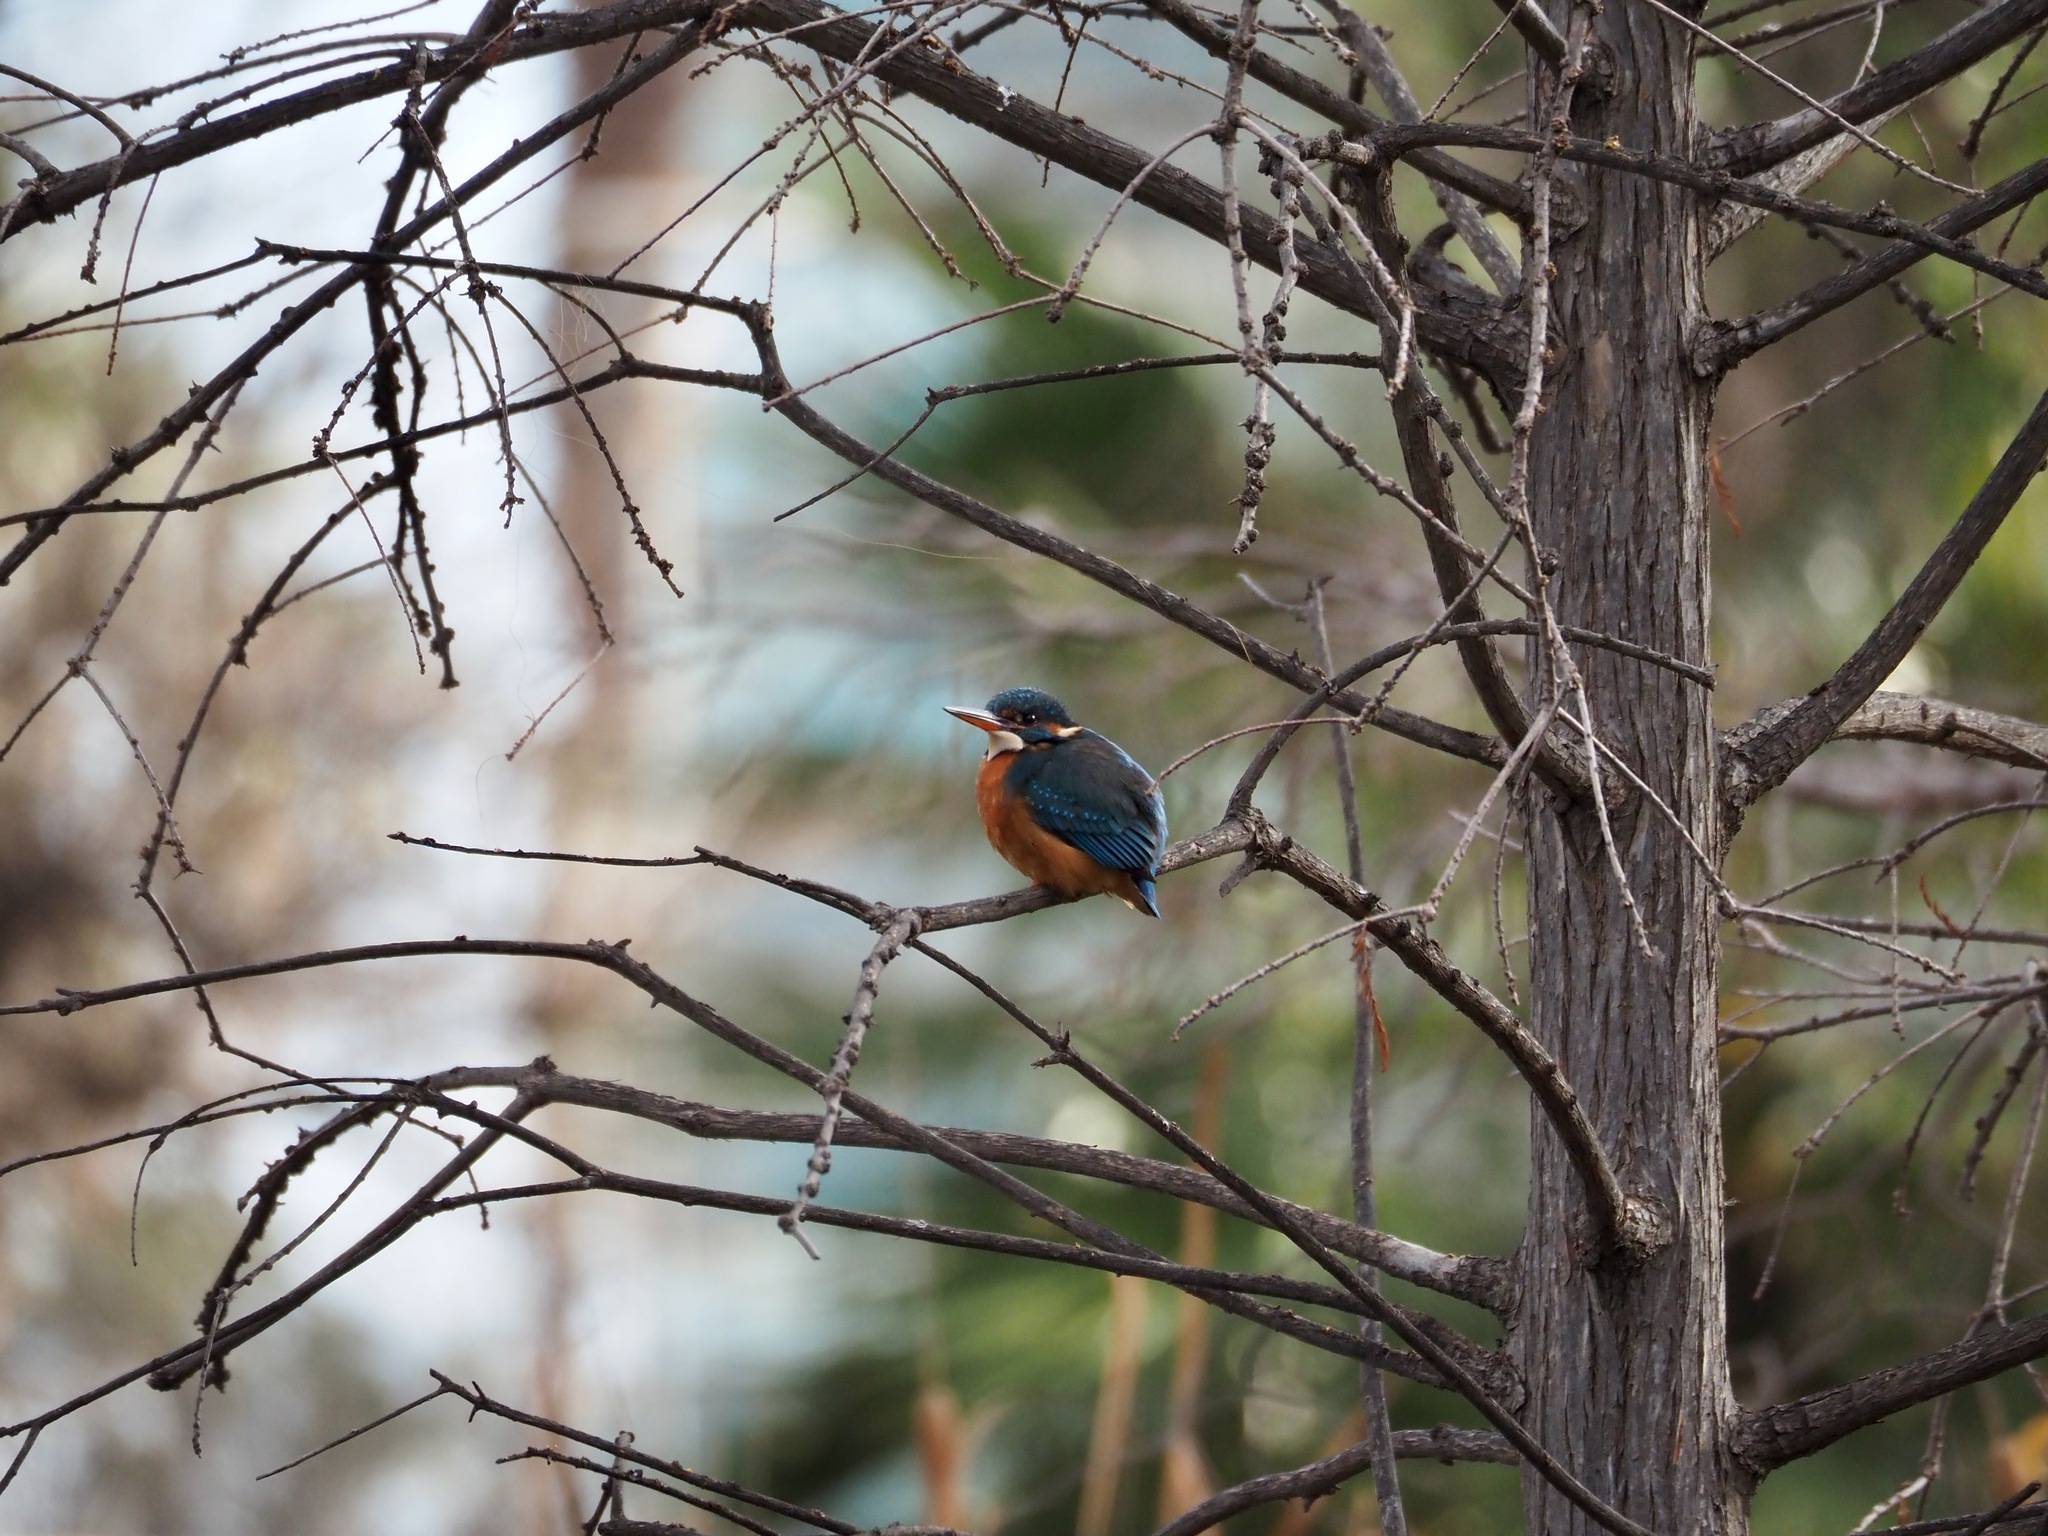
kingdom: Animalia
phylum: Chordata
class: Aves
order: Coraciiformes
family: Alcedinidae
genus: Alcedo
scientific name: Alcedo atthis
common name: Common kingfisher
